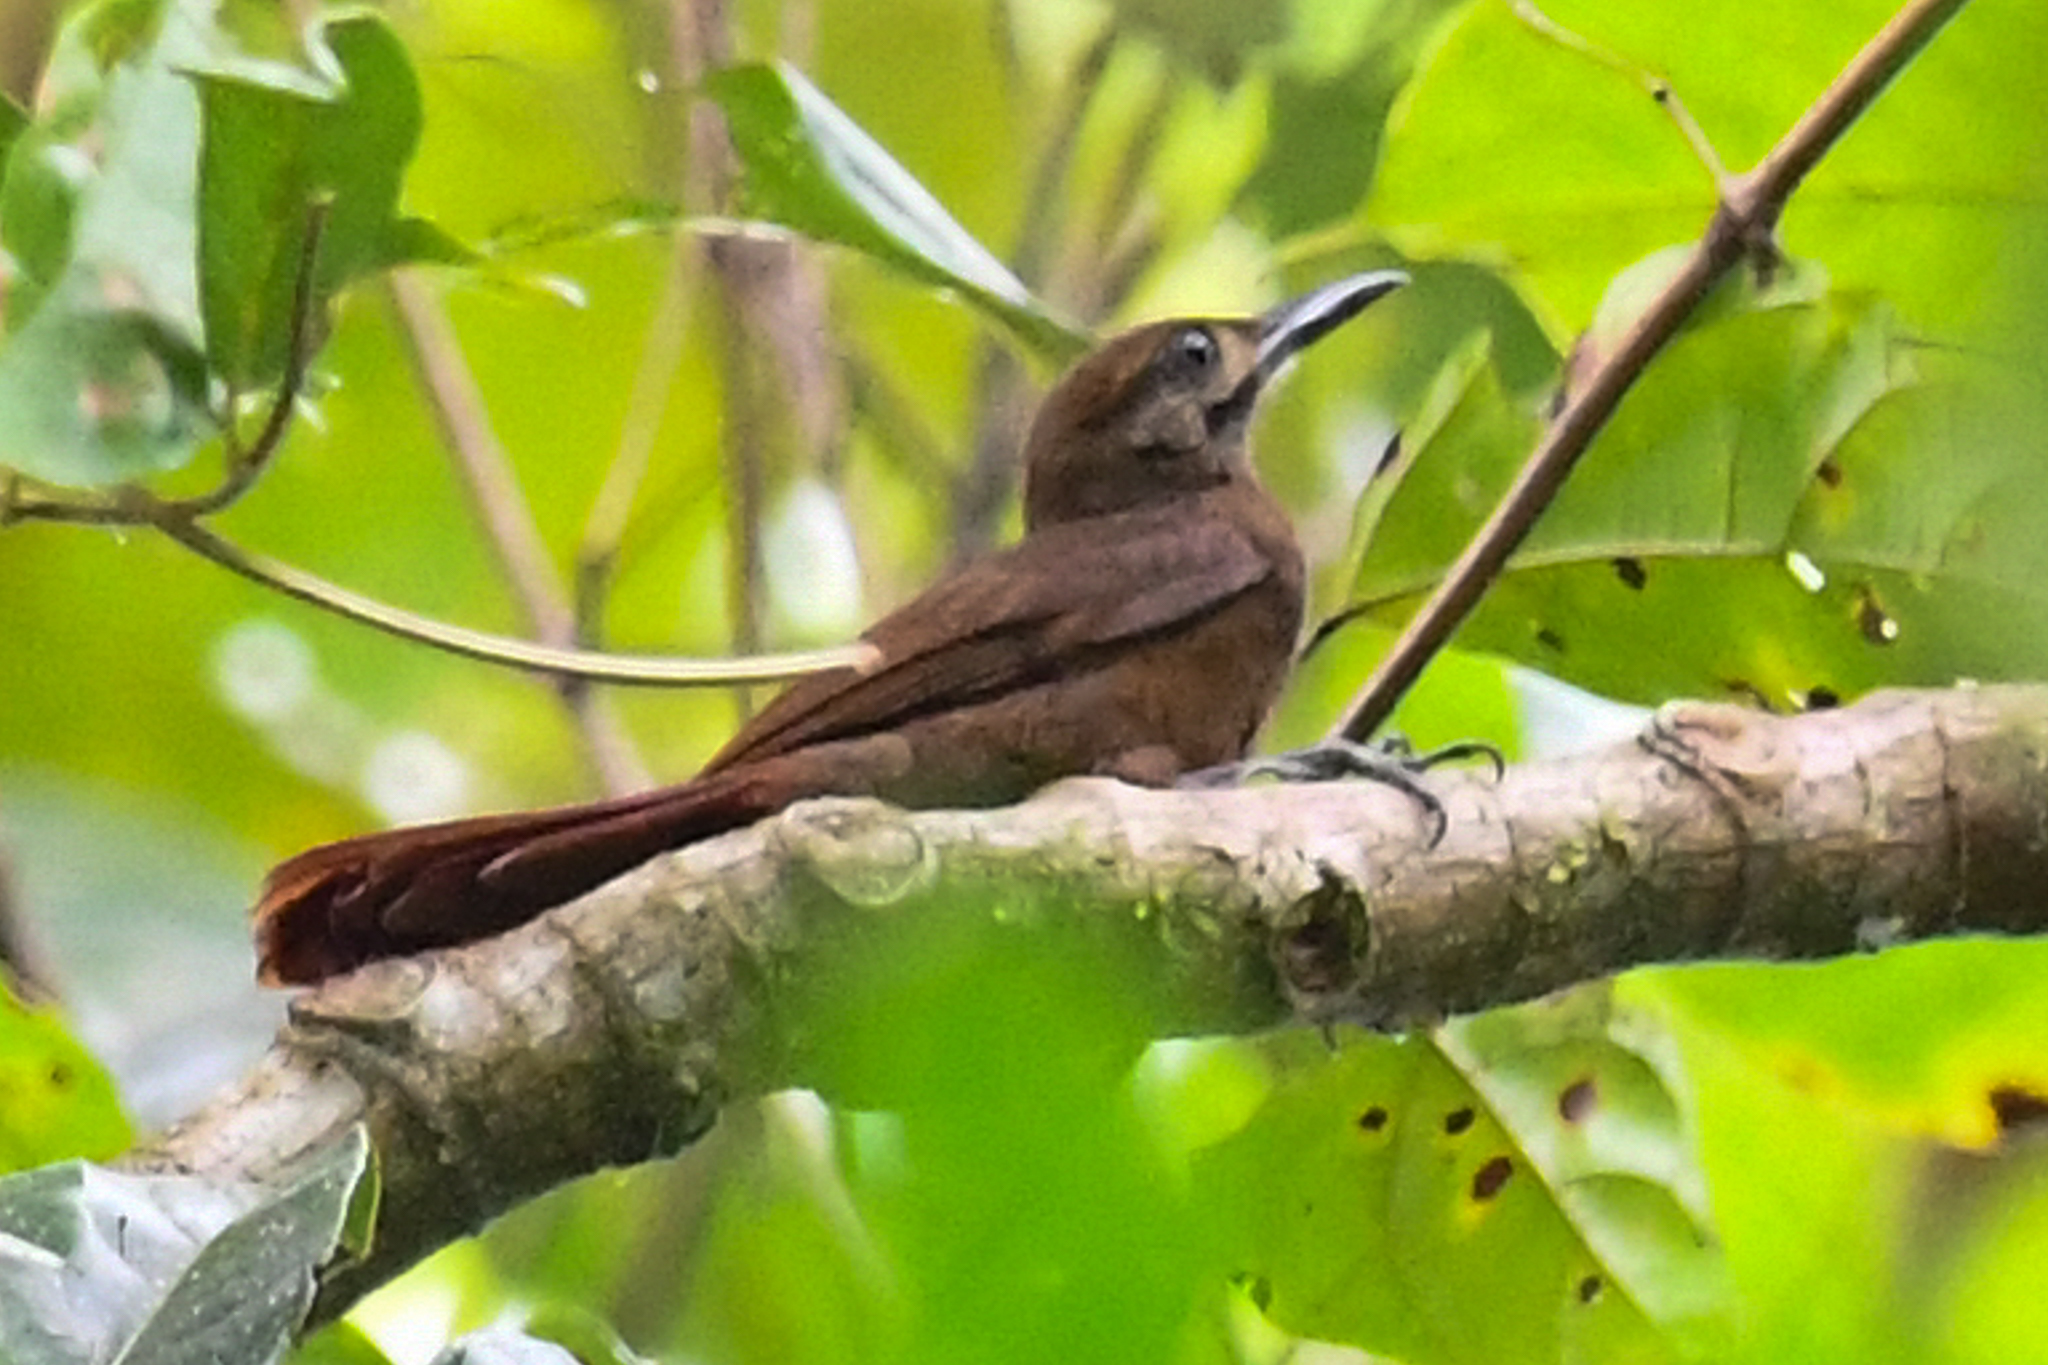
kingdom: Animalia
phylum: Chordata
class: Aves
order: Passeriformes
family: Furnariidae
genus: Dendrocincla
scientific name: Dendrocincla fuliginosa
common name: Plain-brown woodcreeper
